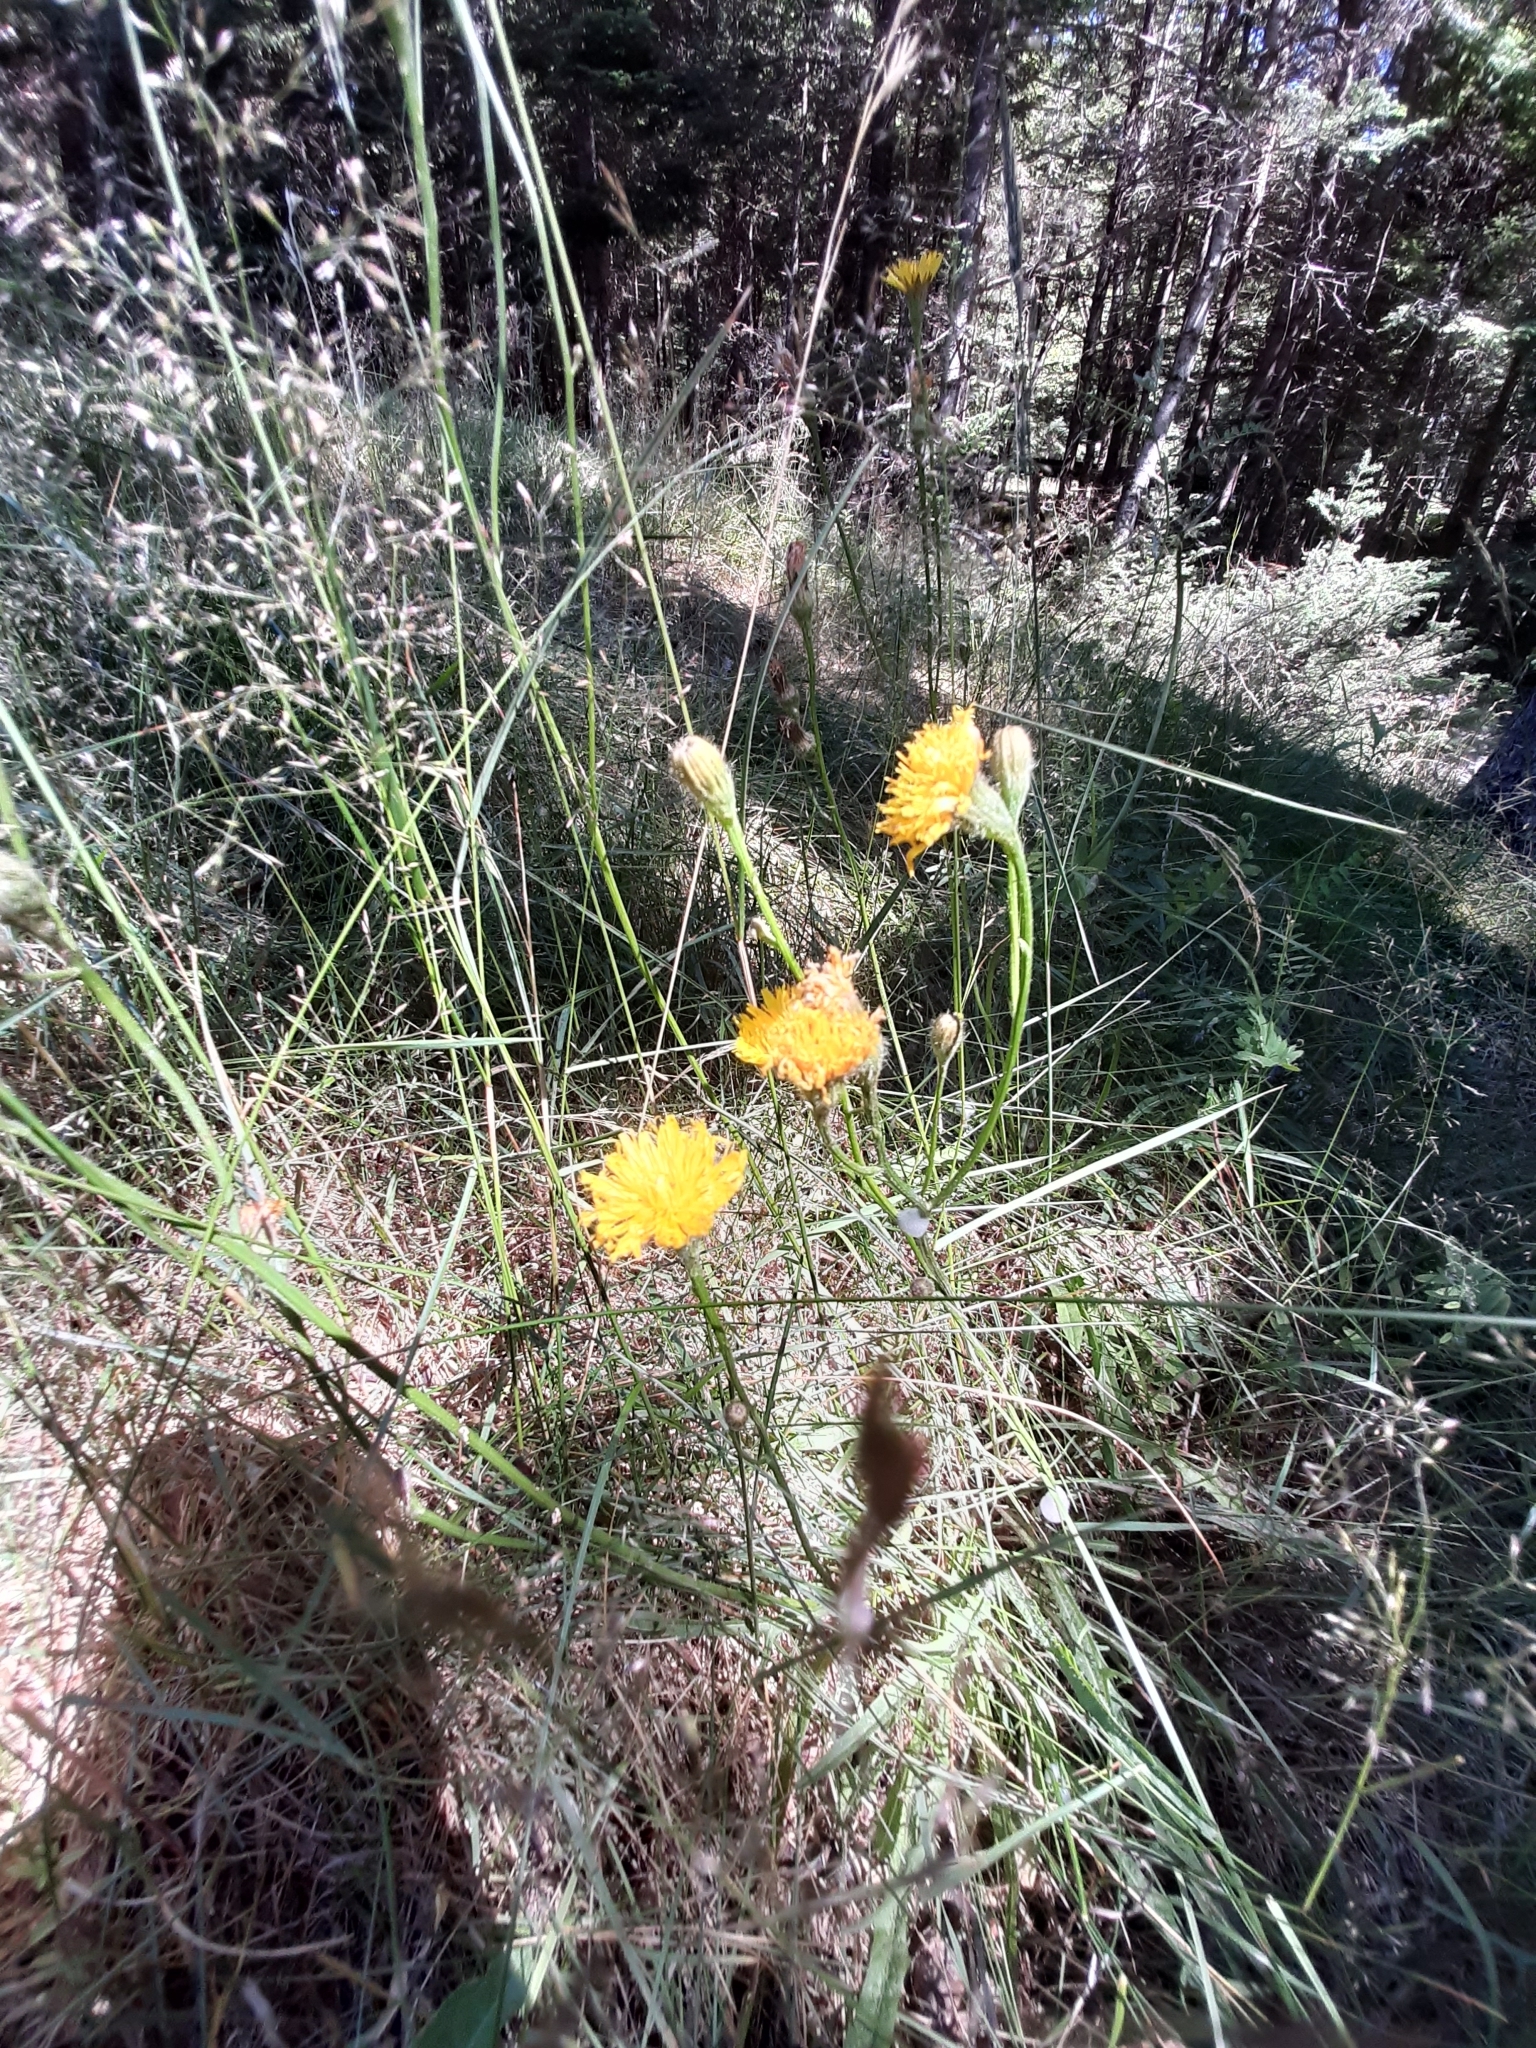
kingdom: Plantae
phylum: Tracheophyta
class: Magnoliopsida
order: Asterales
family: Asteraceae
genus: Scorzoneroides
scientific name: Scorzoneroides autumnalis
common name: Autumn hawkbit
